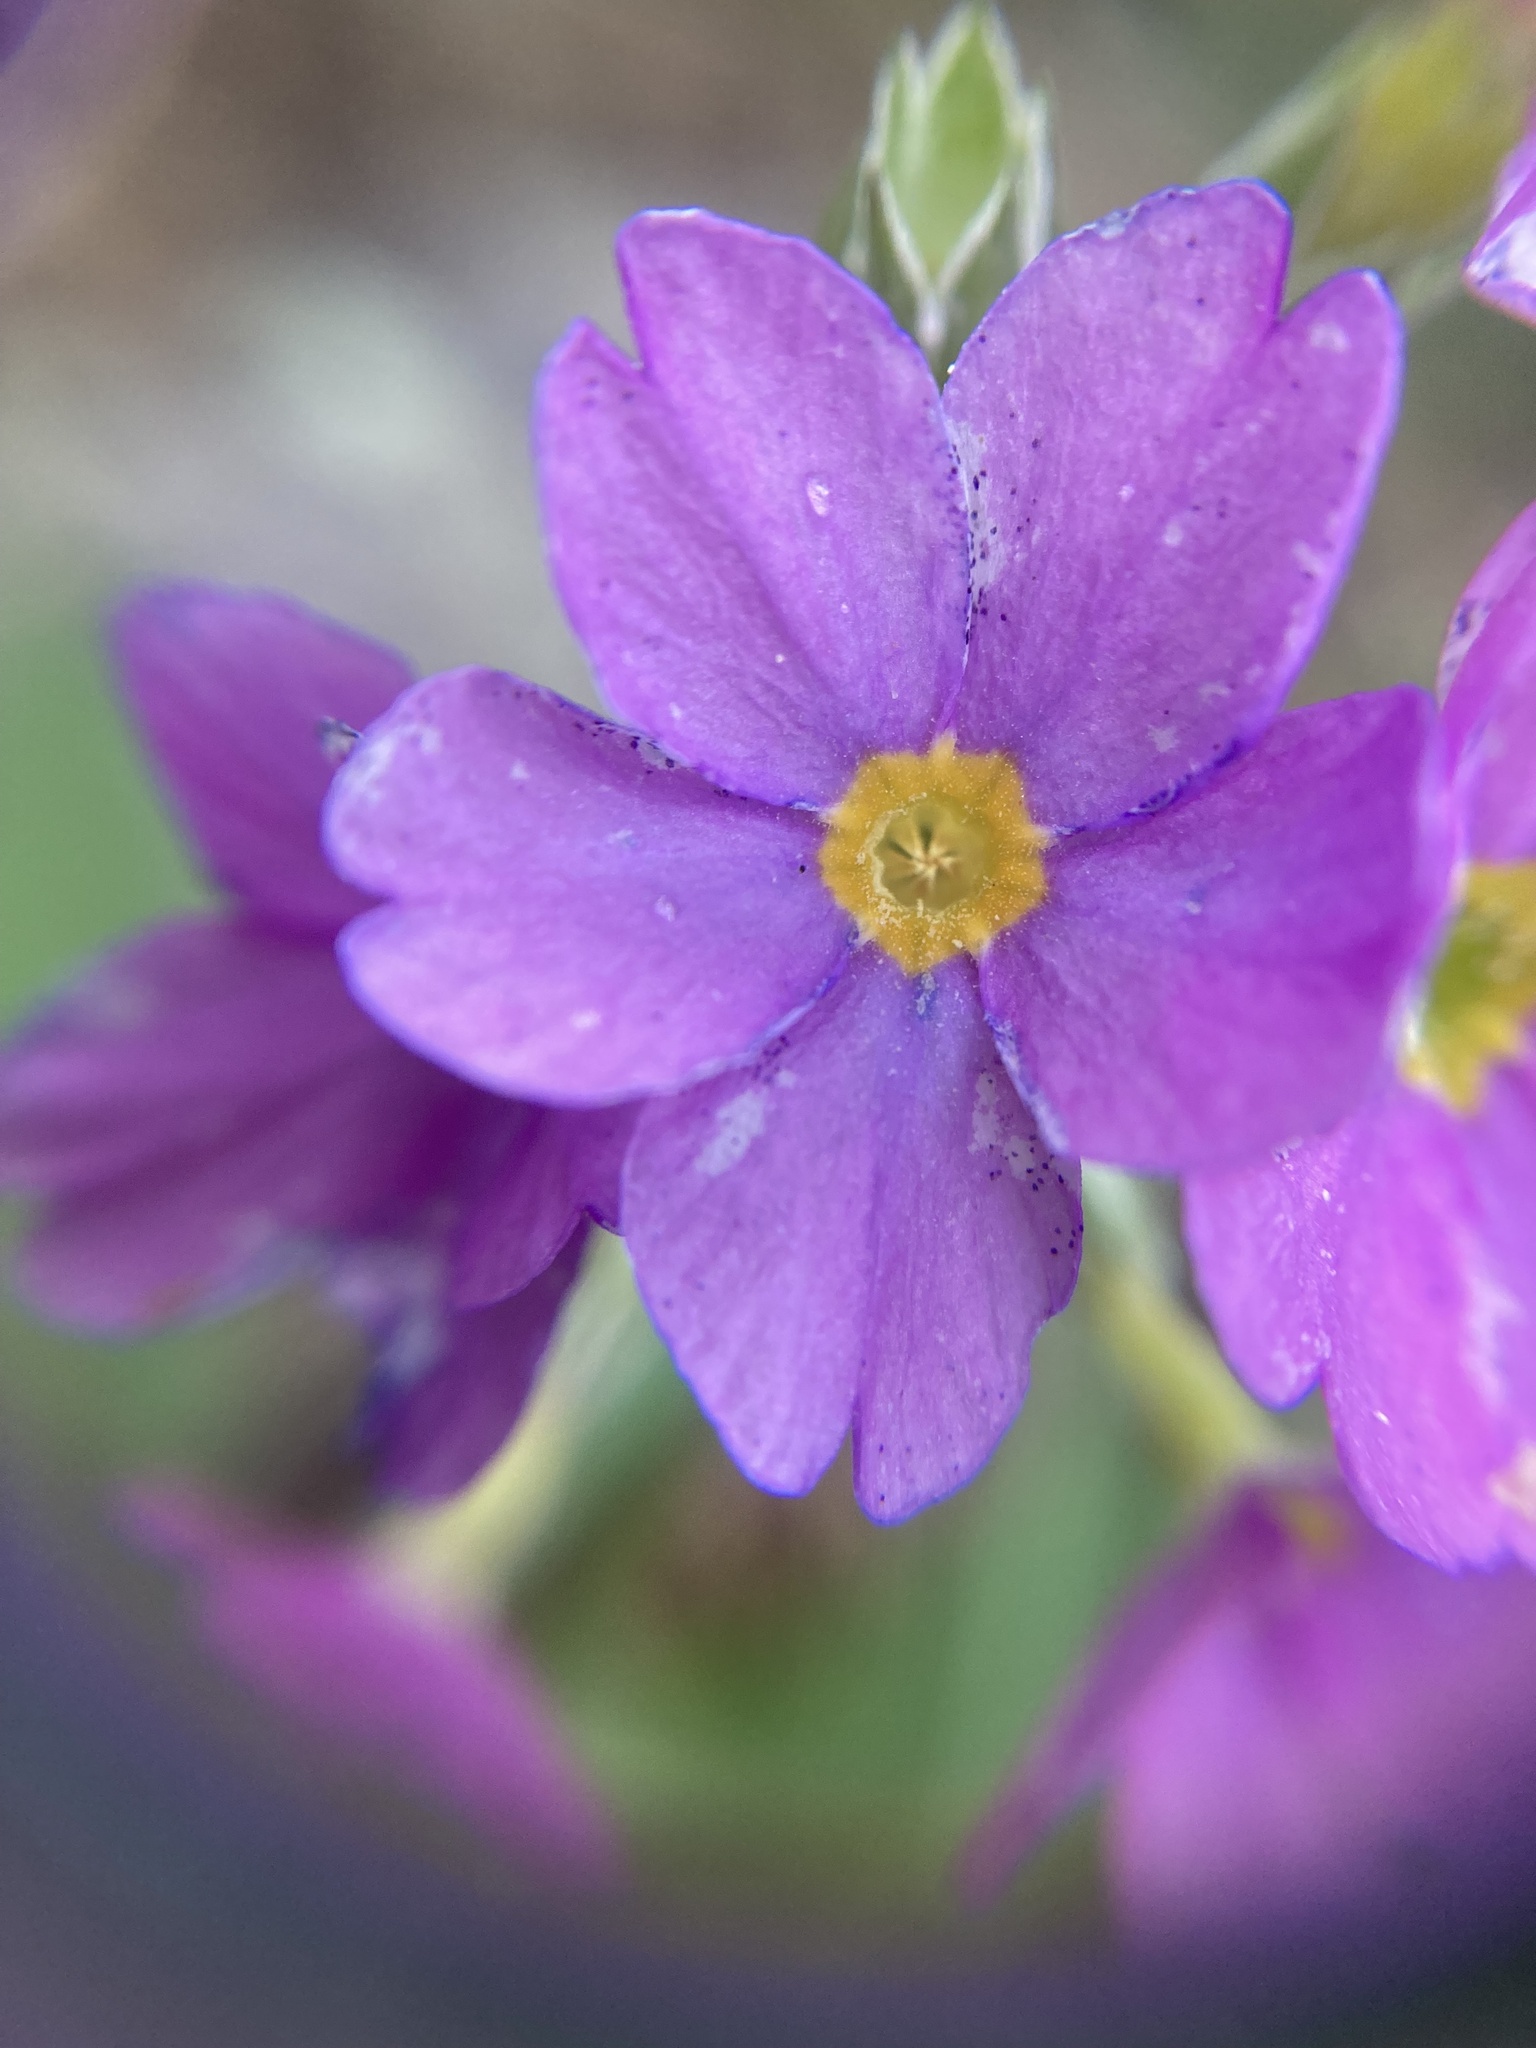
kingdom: Plantae
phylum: Tracheophyta
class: Magnoliopsida
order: Ericales
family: Primulaceae
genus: Primula
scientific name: Primula rusbyi
